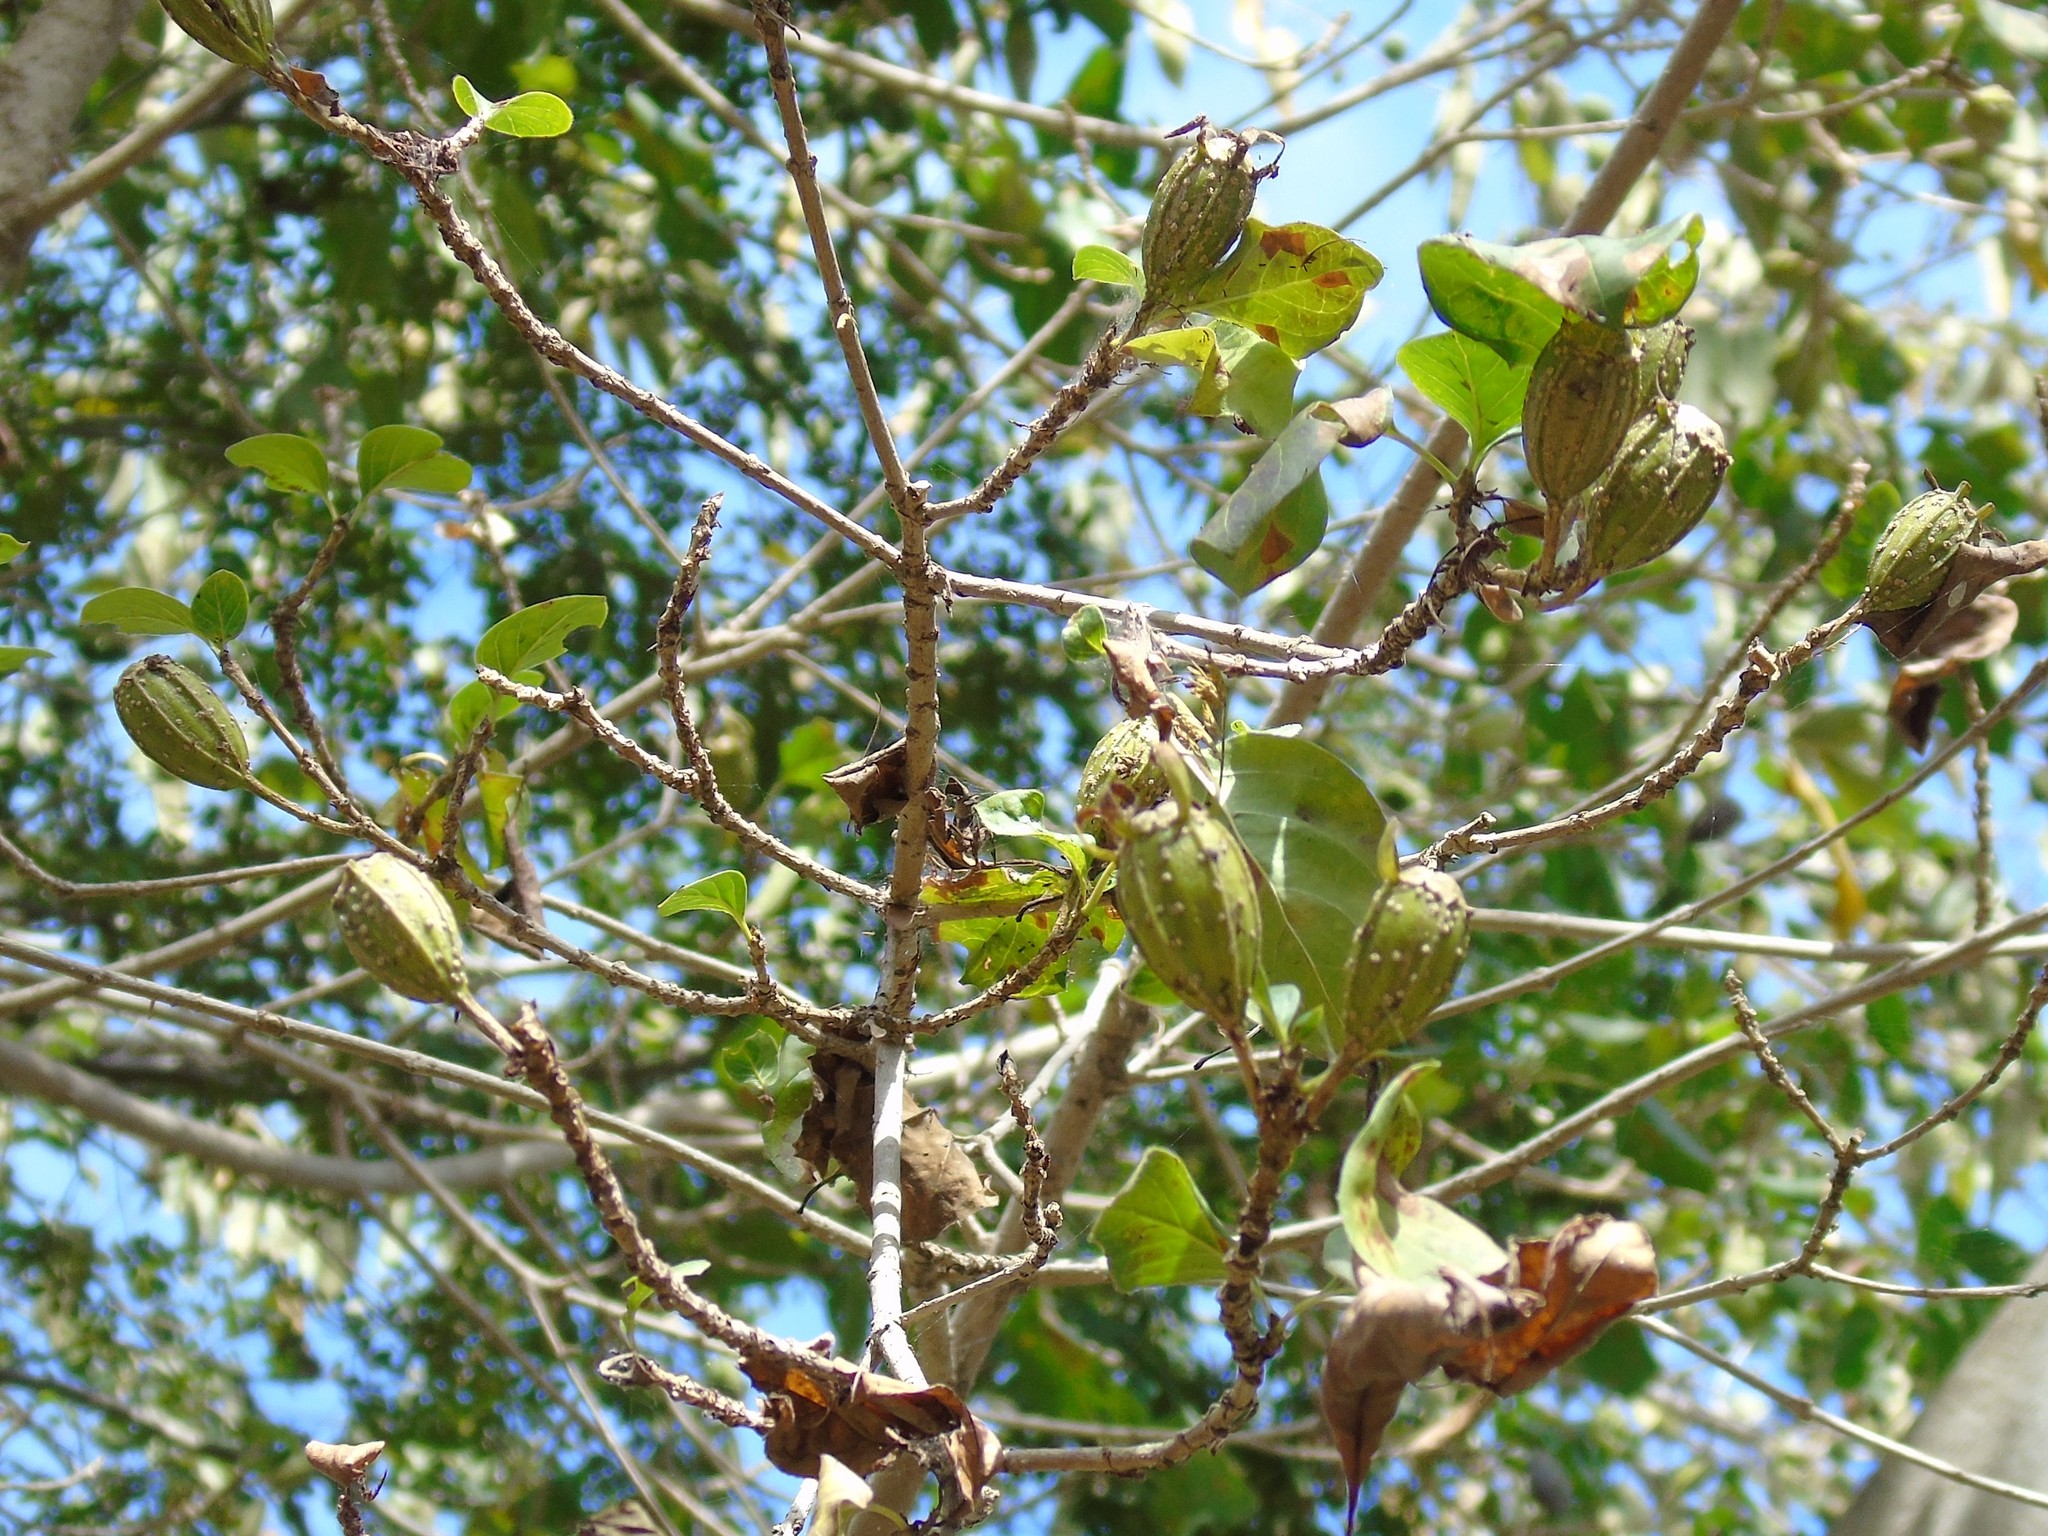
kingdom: Plantae
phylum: Tracheophyta
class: Magnoliopsida
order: Gentianales
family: Rubiaceae
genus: Hintonia
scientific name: Hintonia latiflora
